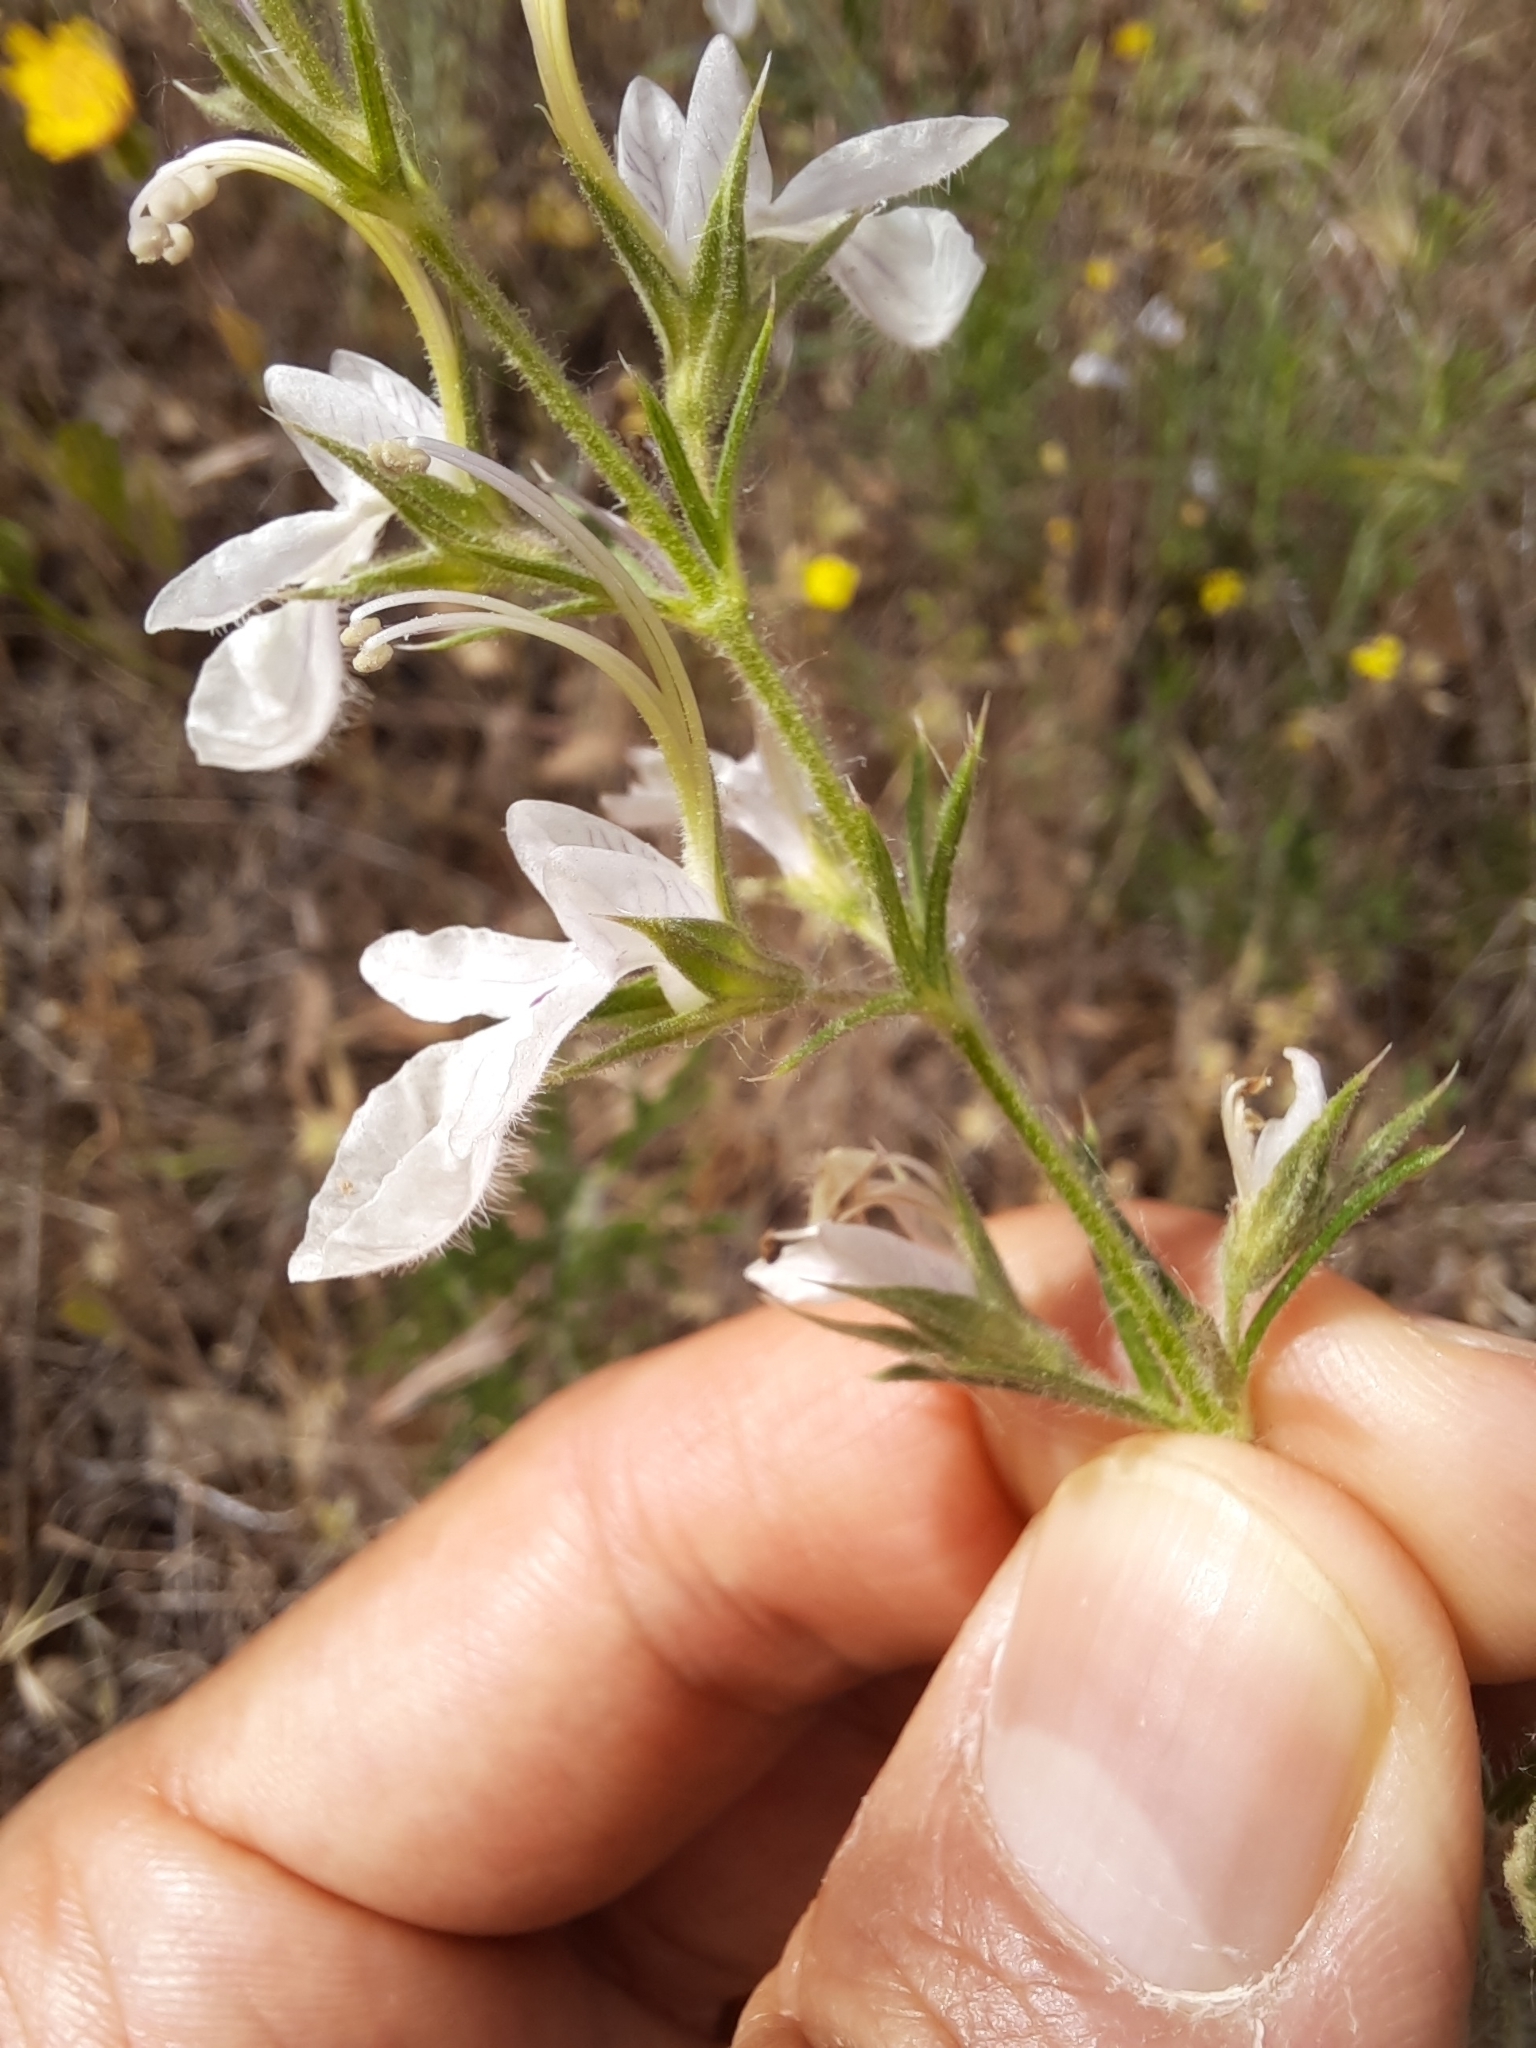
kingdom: Plantae
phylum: Tracheophyta
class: Magnoliopsida
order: Lamiales
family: Lamiaceae
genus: Teucrium
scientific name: Teucrium pseudochamaepitys
